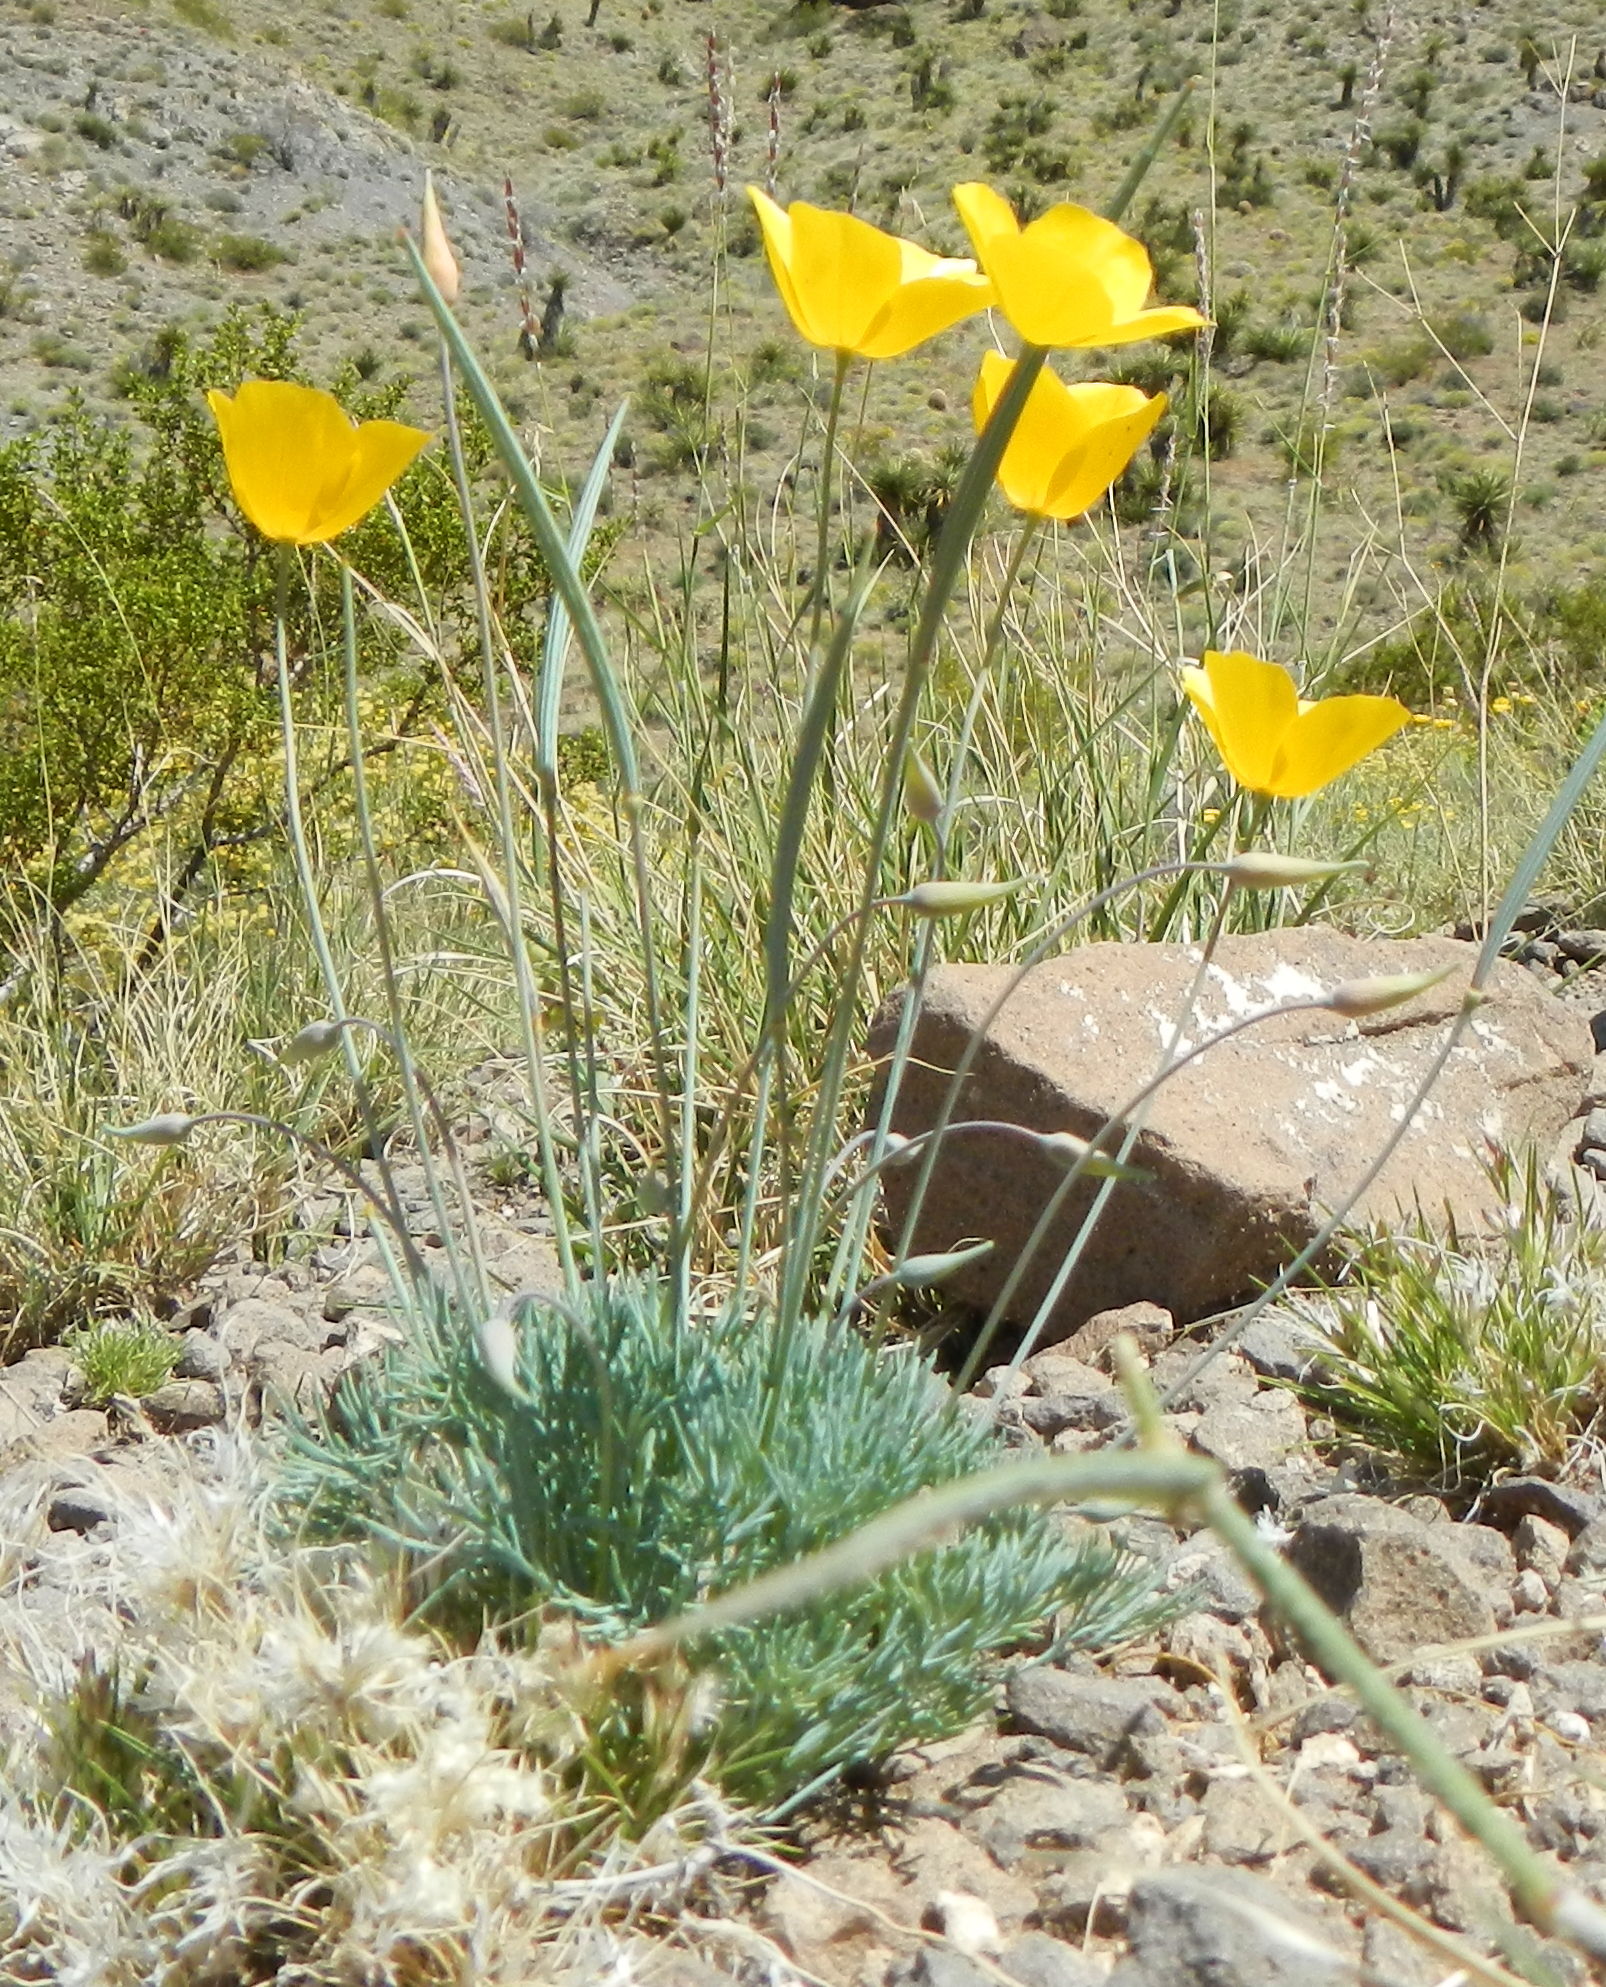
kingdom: Plantae
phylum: Tracheophyta
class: Magnoliopsida
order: Ranunculales
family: Papaveraceae
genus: Eschscholzia
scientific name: Eschscholzia glyptosperma
